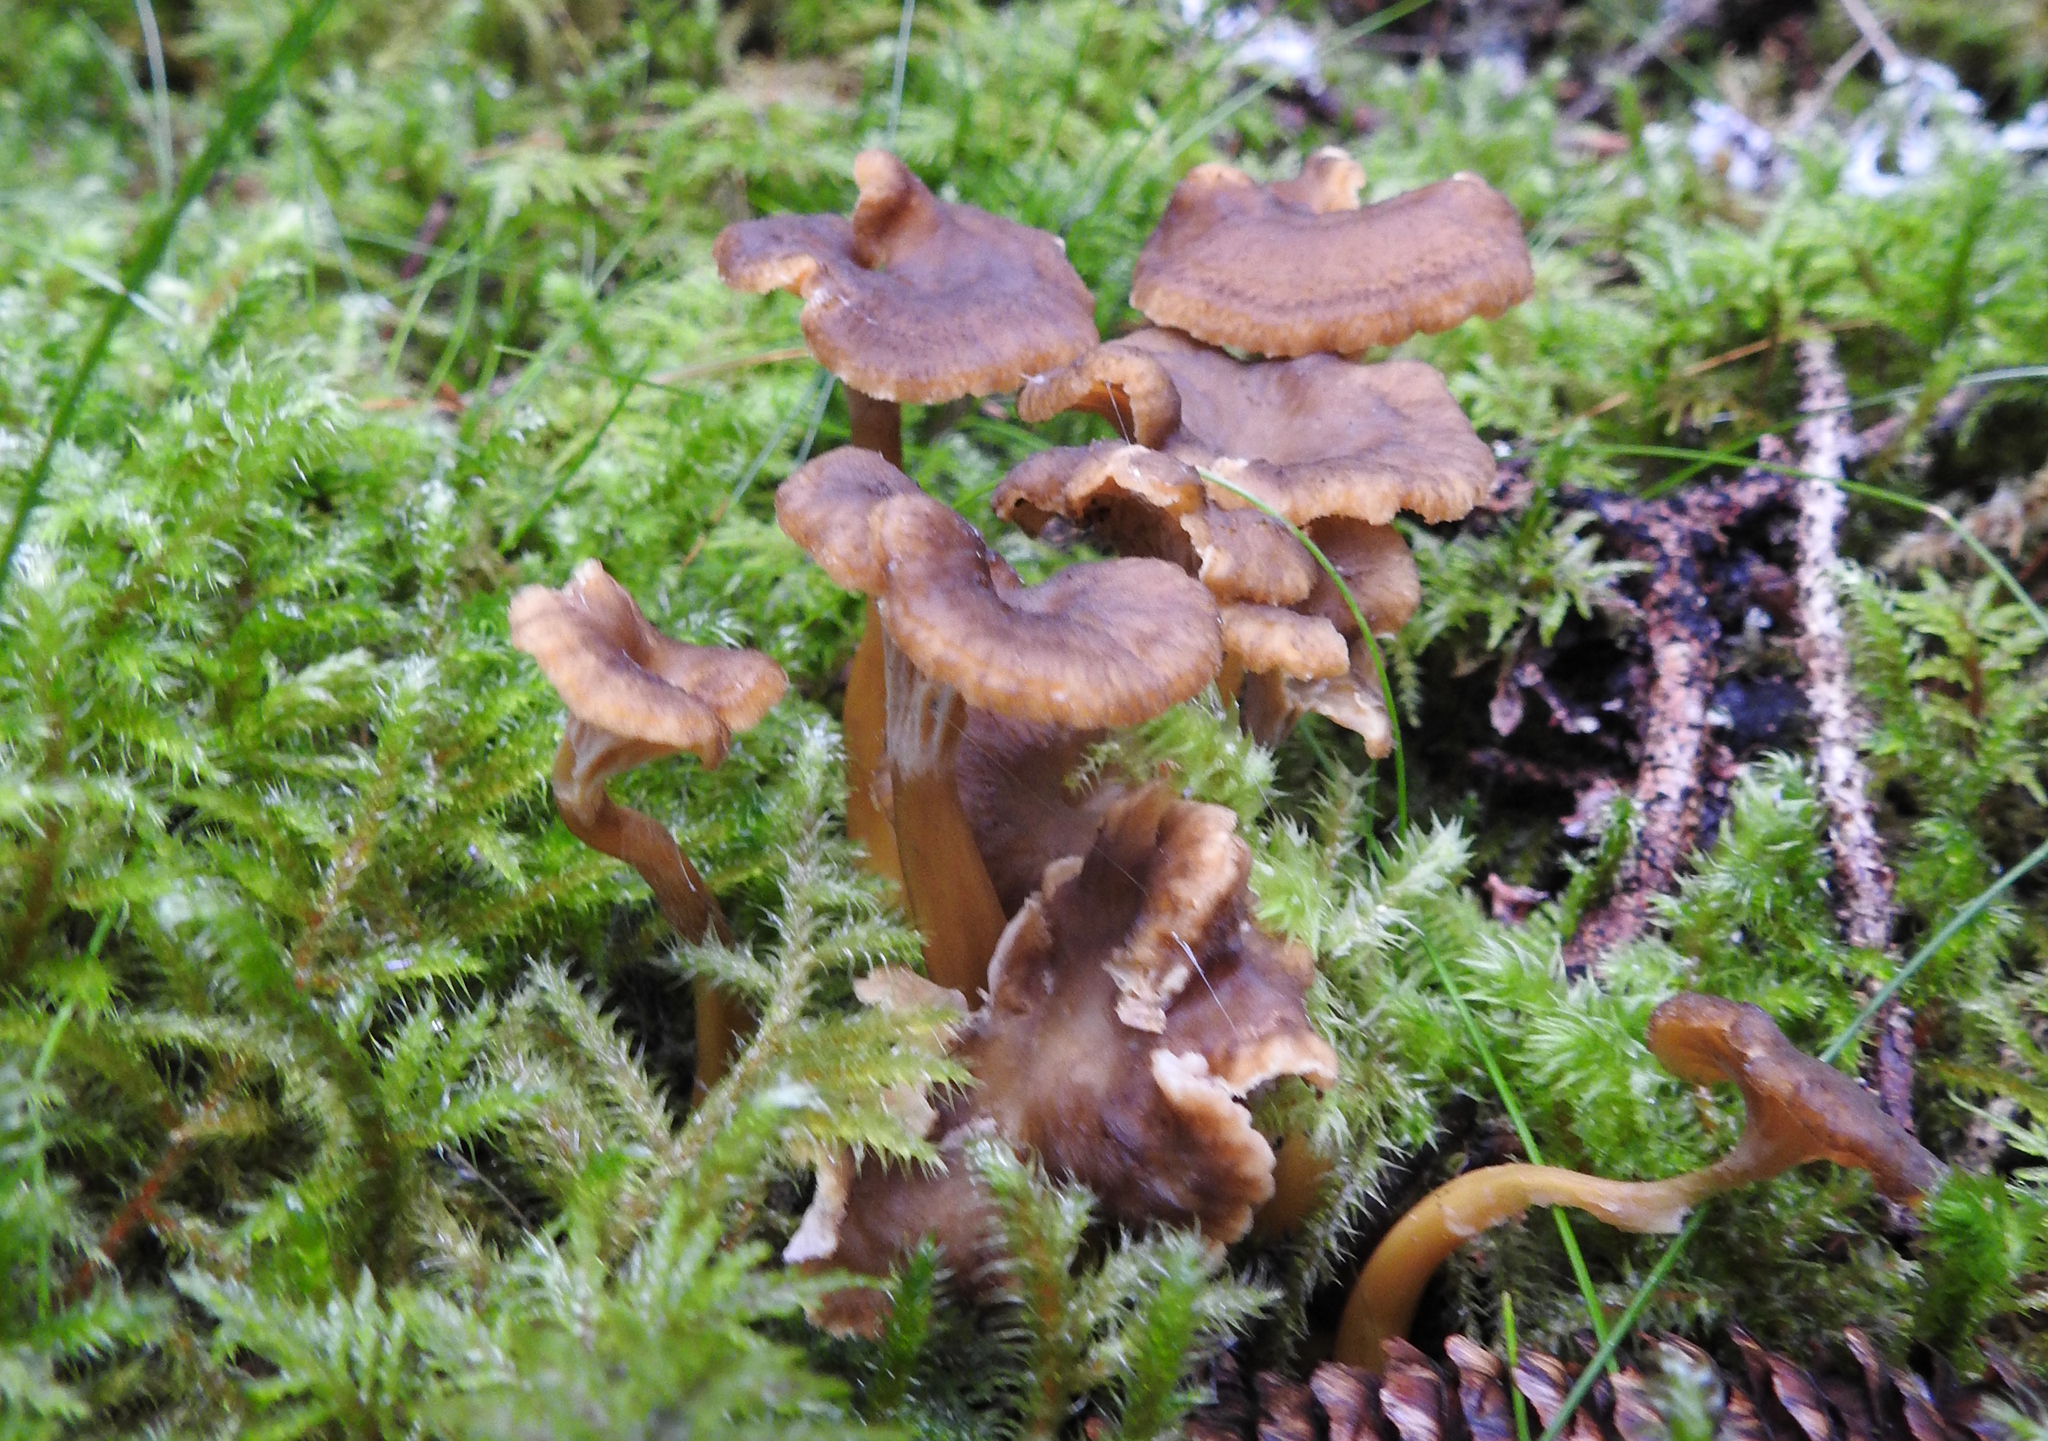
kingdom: Fungi
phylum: Basidiomycota
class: Agaricomycetes
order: Cantharellales
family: Hydnaceae
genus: Craterellus
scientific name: Craterellus tubaeformis
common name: Yellowfoot
